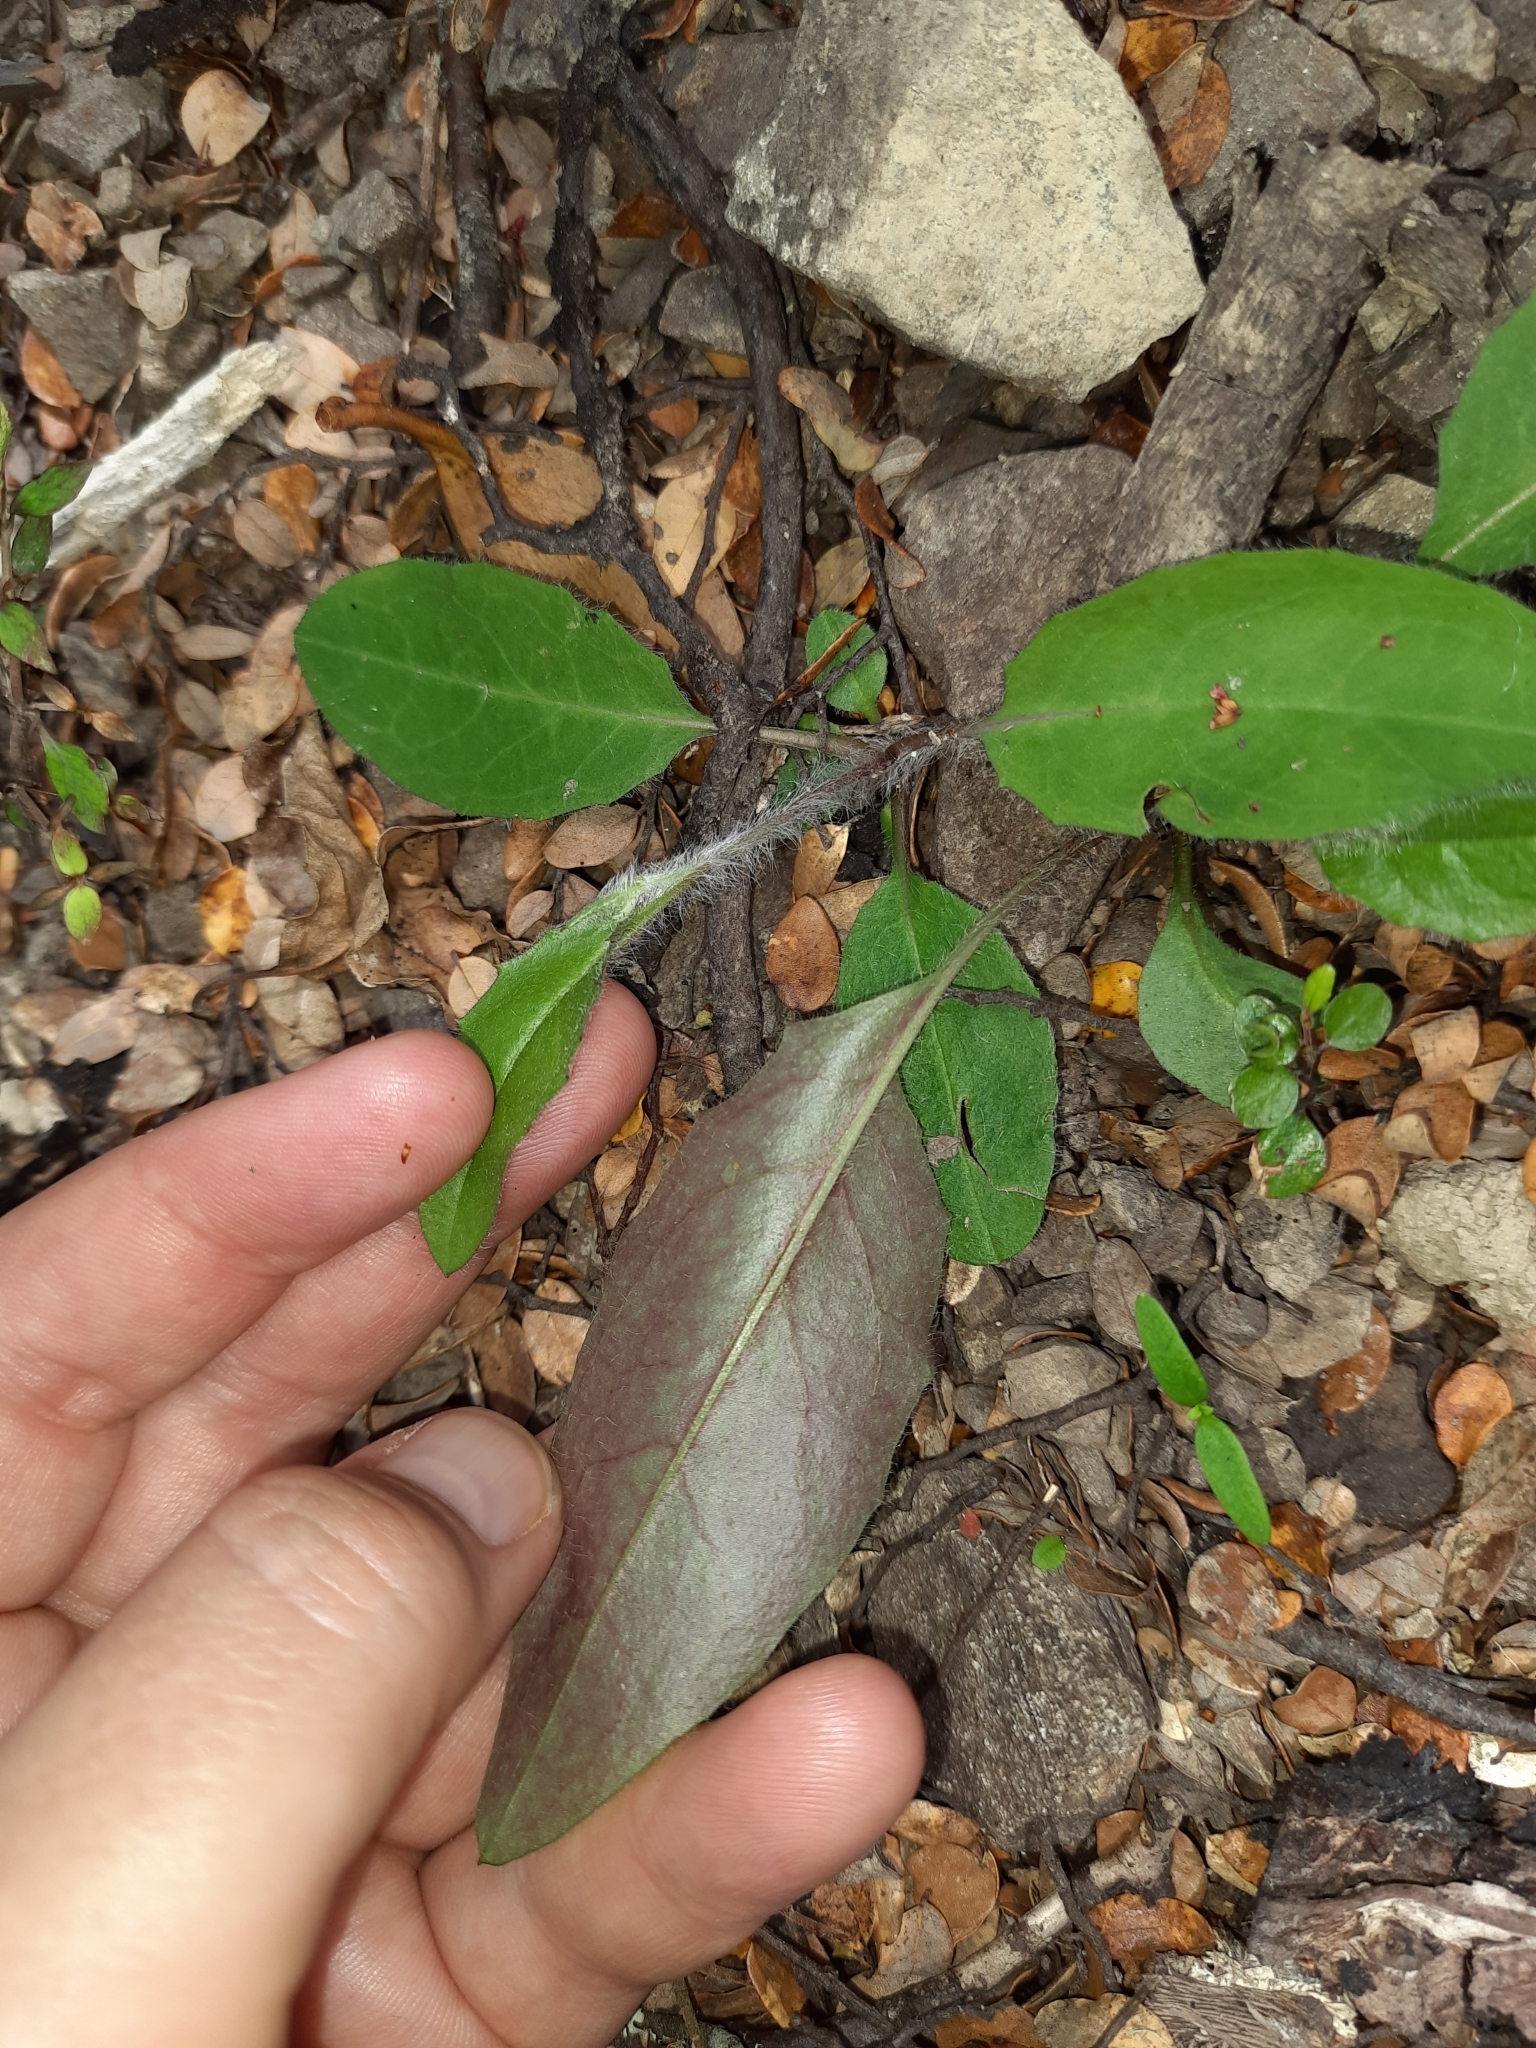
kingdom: Plantae
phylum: Tracheophyta
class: Magnoliopsida
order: Asterales
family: Asteraceae
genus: Hieracium
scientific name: Hieracium lepidulum
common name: Irregular-toothed hawkweed
